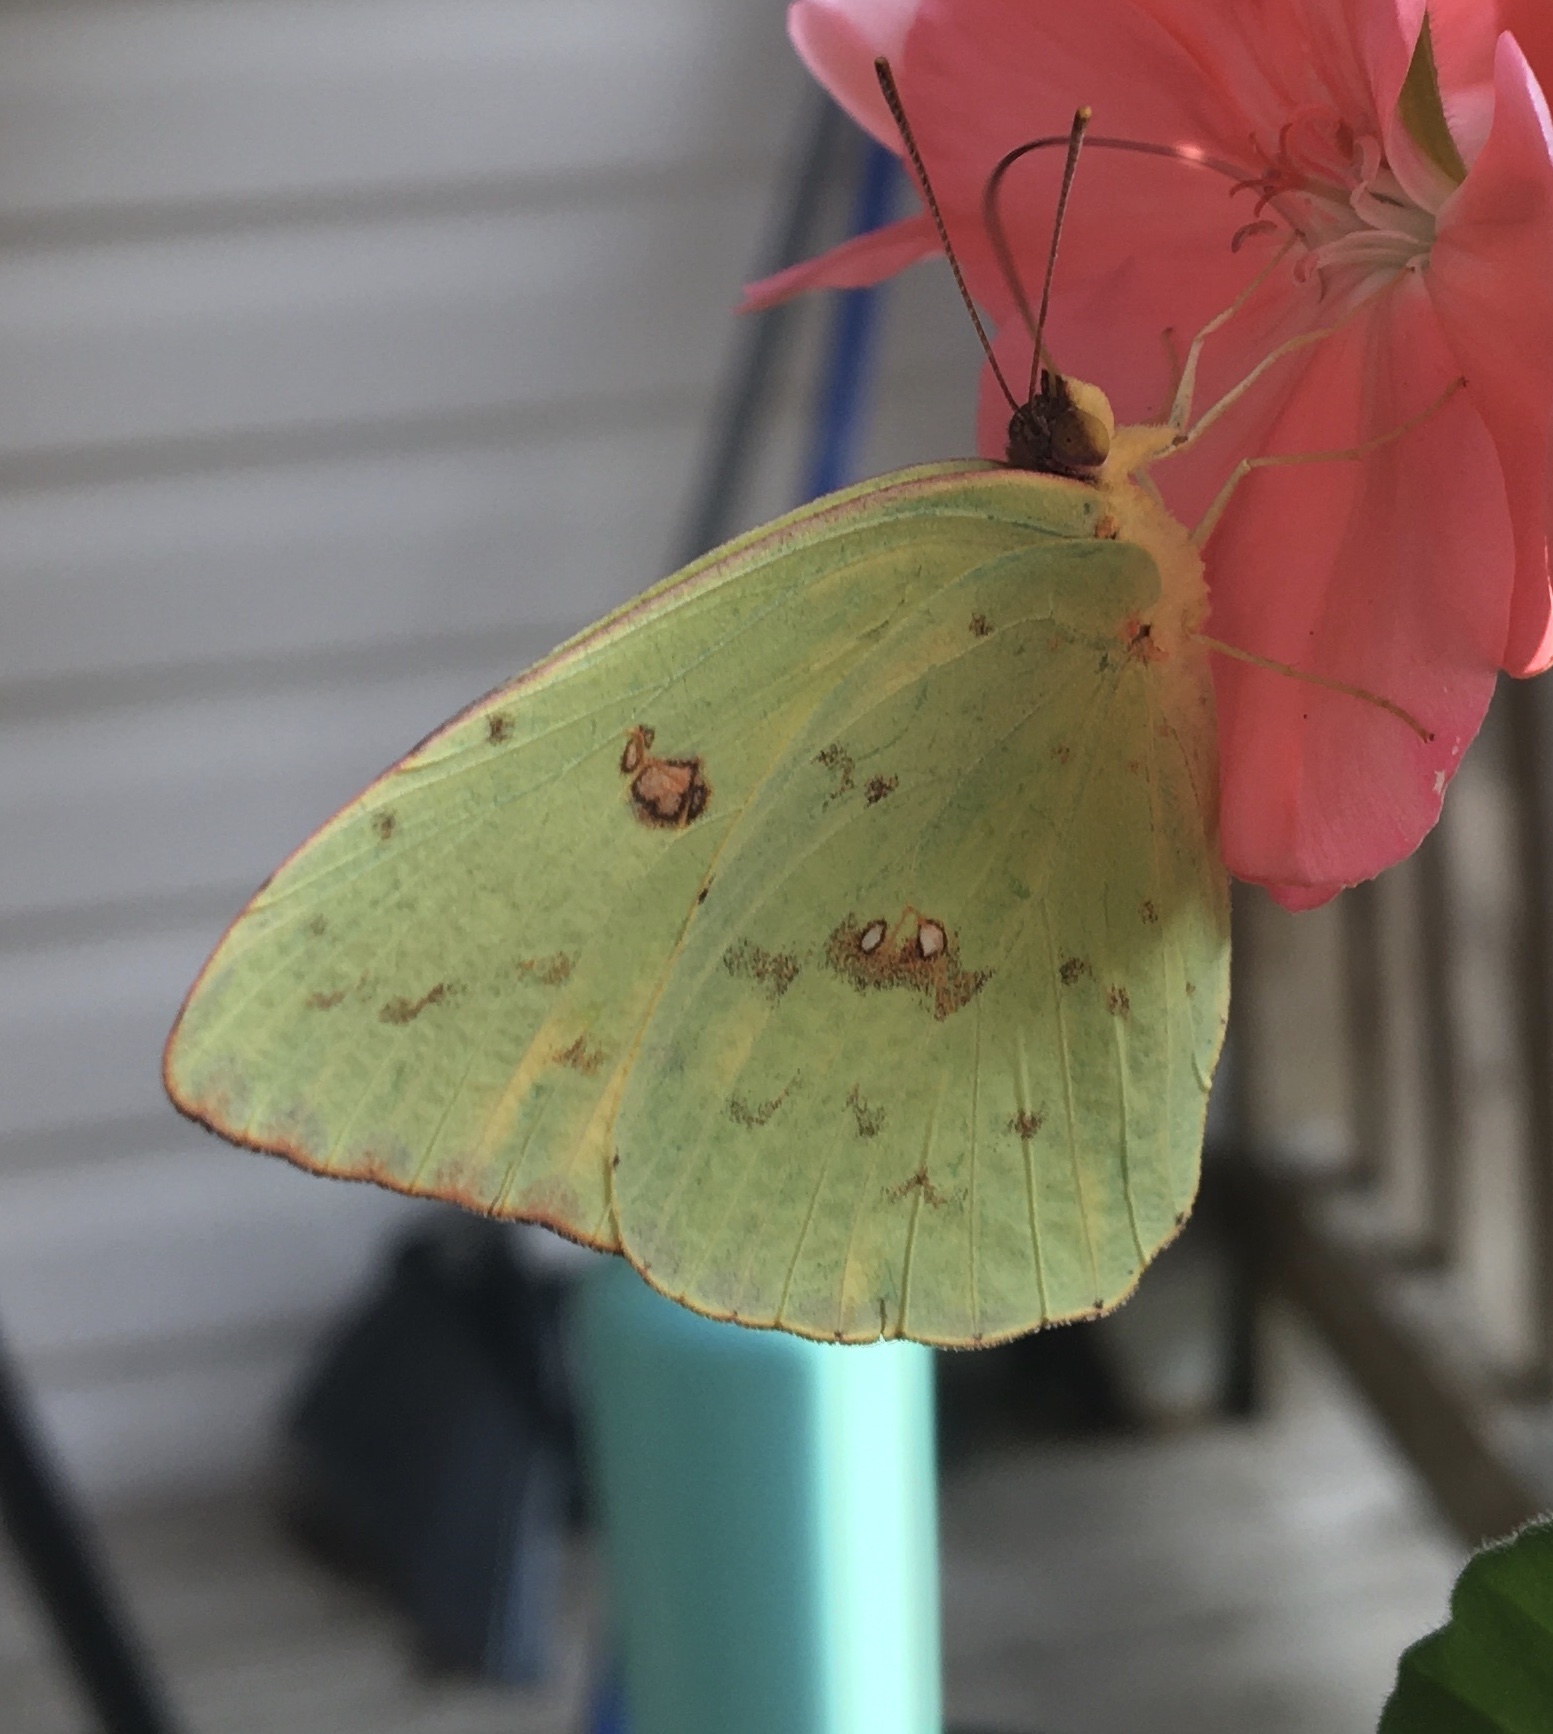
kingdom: Animalia
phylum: Arthropoda
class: Insecta
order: Lepidoptera
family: Pieridae
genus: Phoebis
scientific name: Phoebis sennae
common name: Cloudless sulphur
